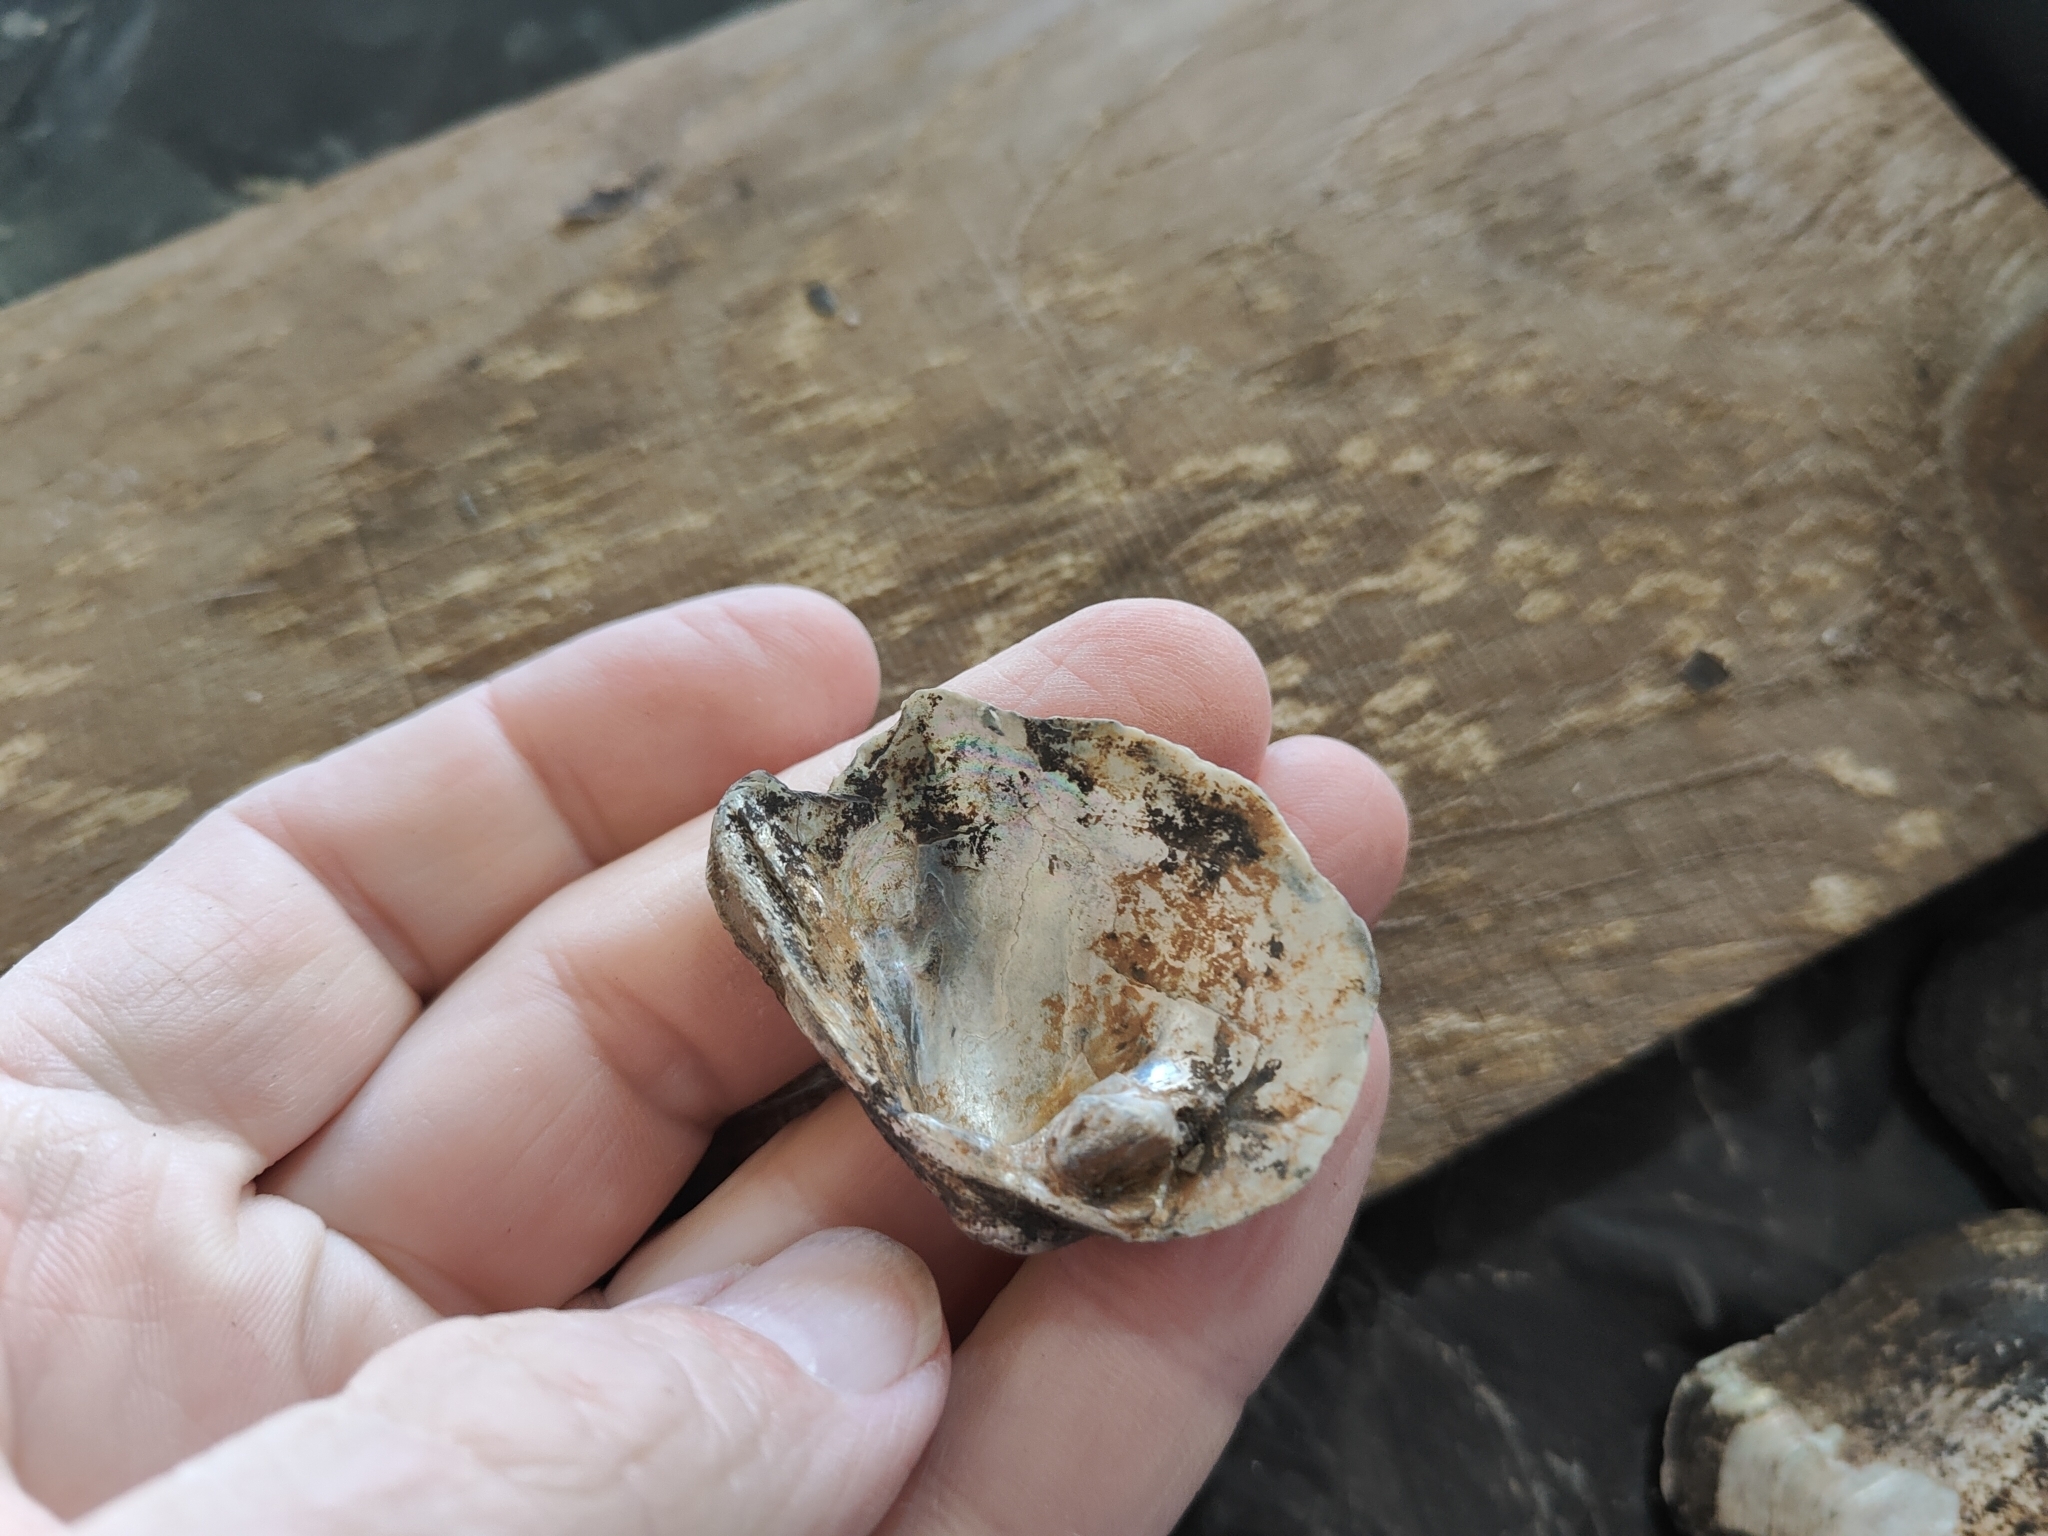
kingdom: Animalia
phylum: Mollusca
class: Bivalvia
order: Unionida
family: Unionidae
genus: Quadrula
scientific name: Quadrula quadrula
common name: Mapleleaf
